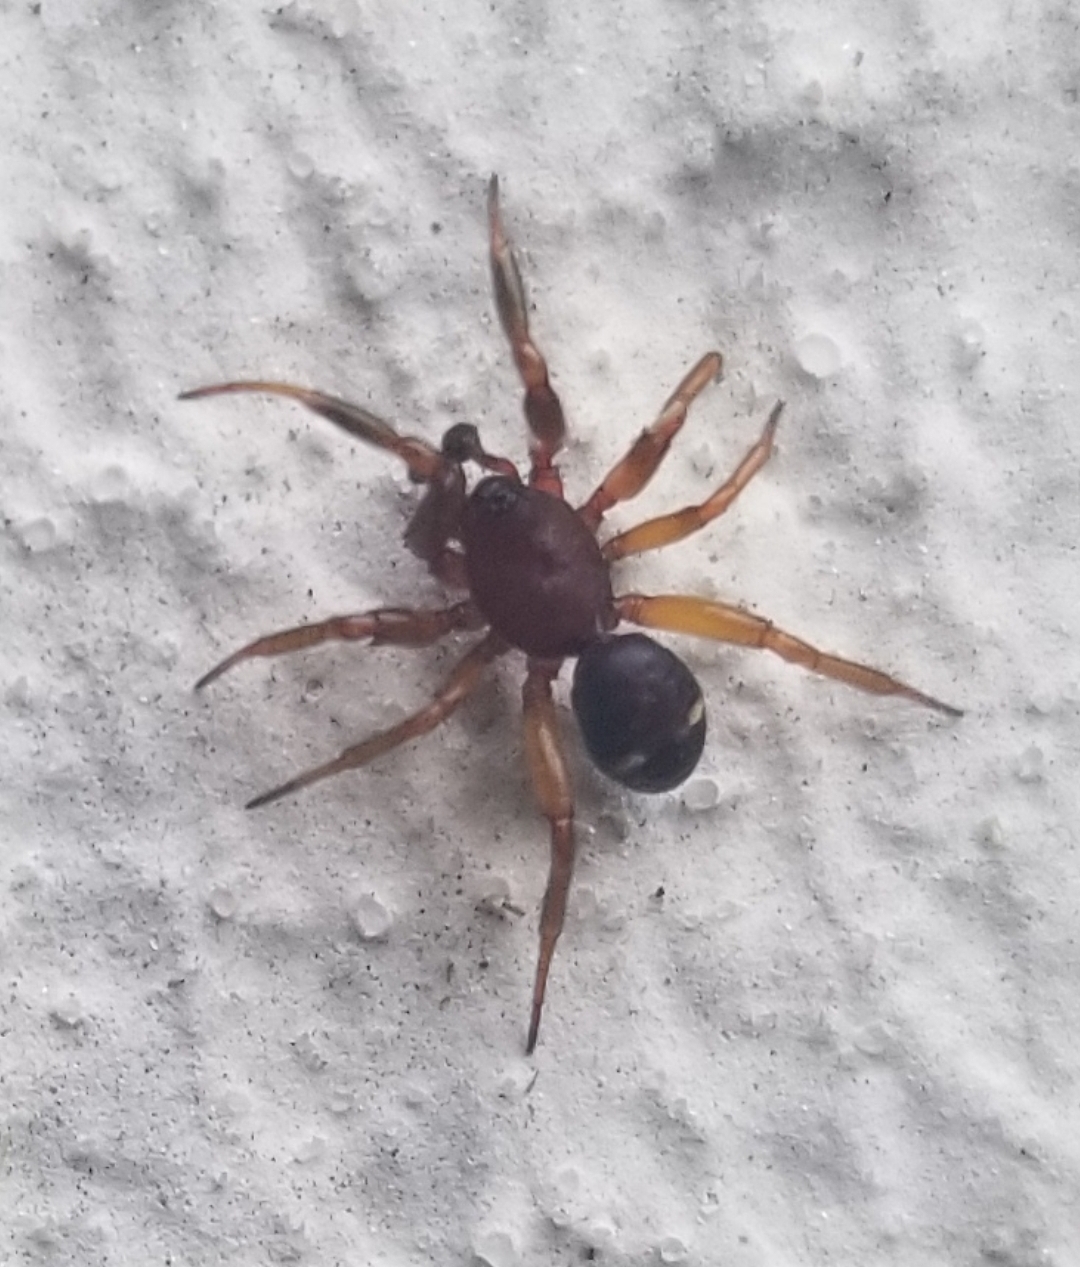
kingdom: Animalia
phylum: Arthropoda
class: Arachnida
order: Araneae
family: Theridiidae
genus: Asagena
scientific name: Asagena americana
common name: Two-spotted cobweb spider
